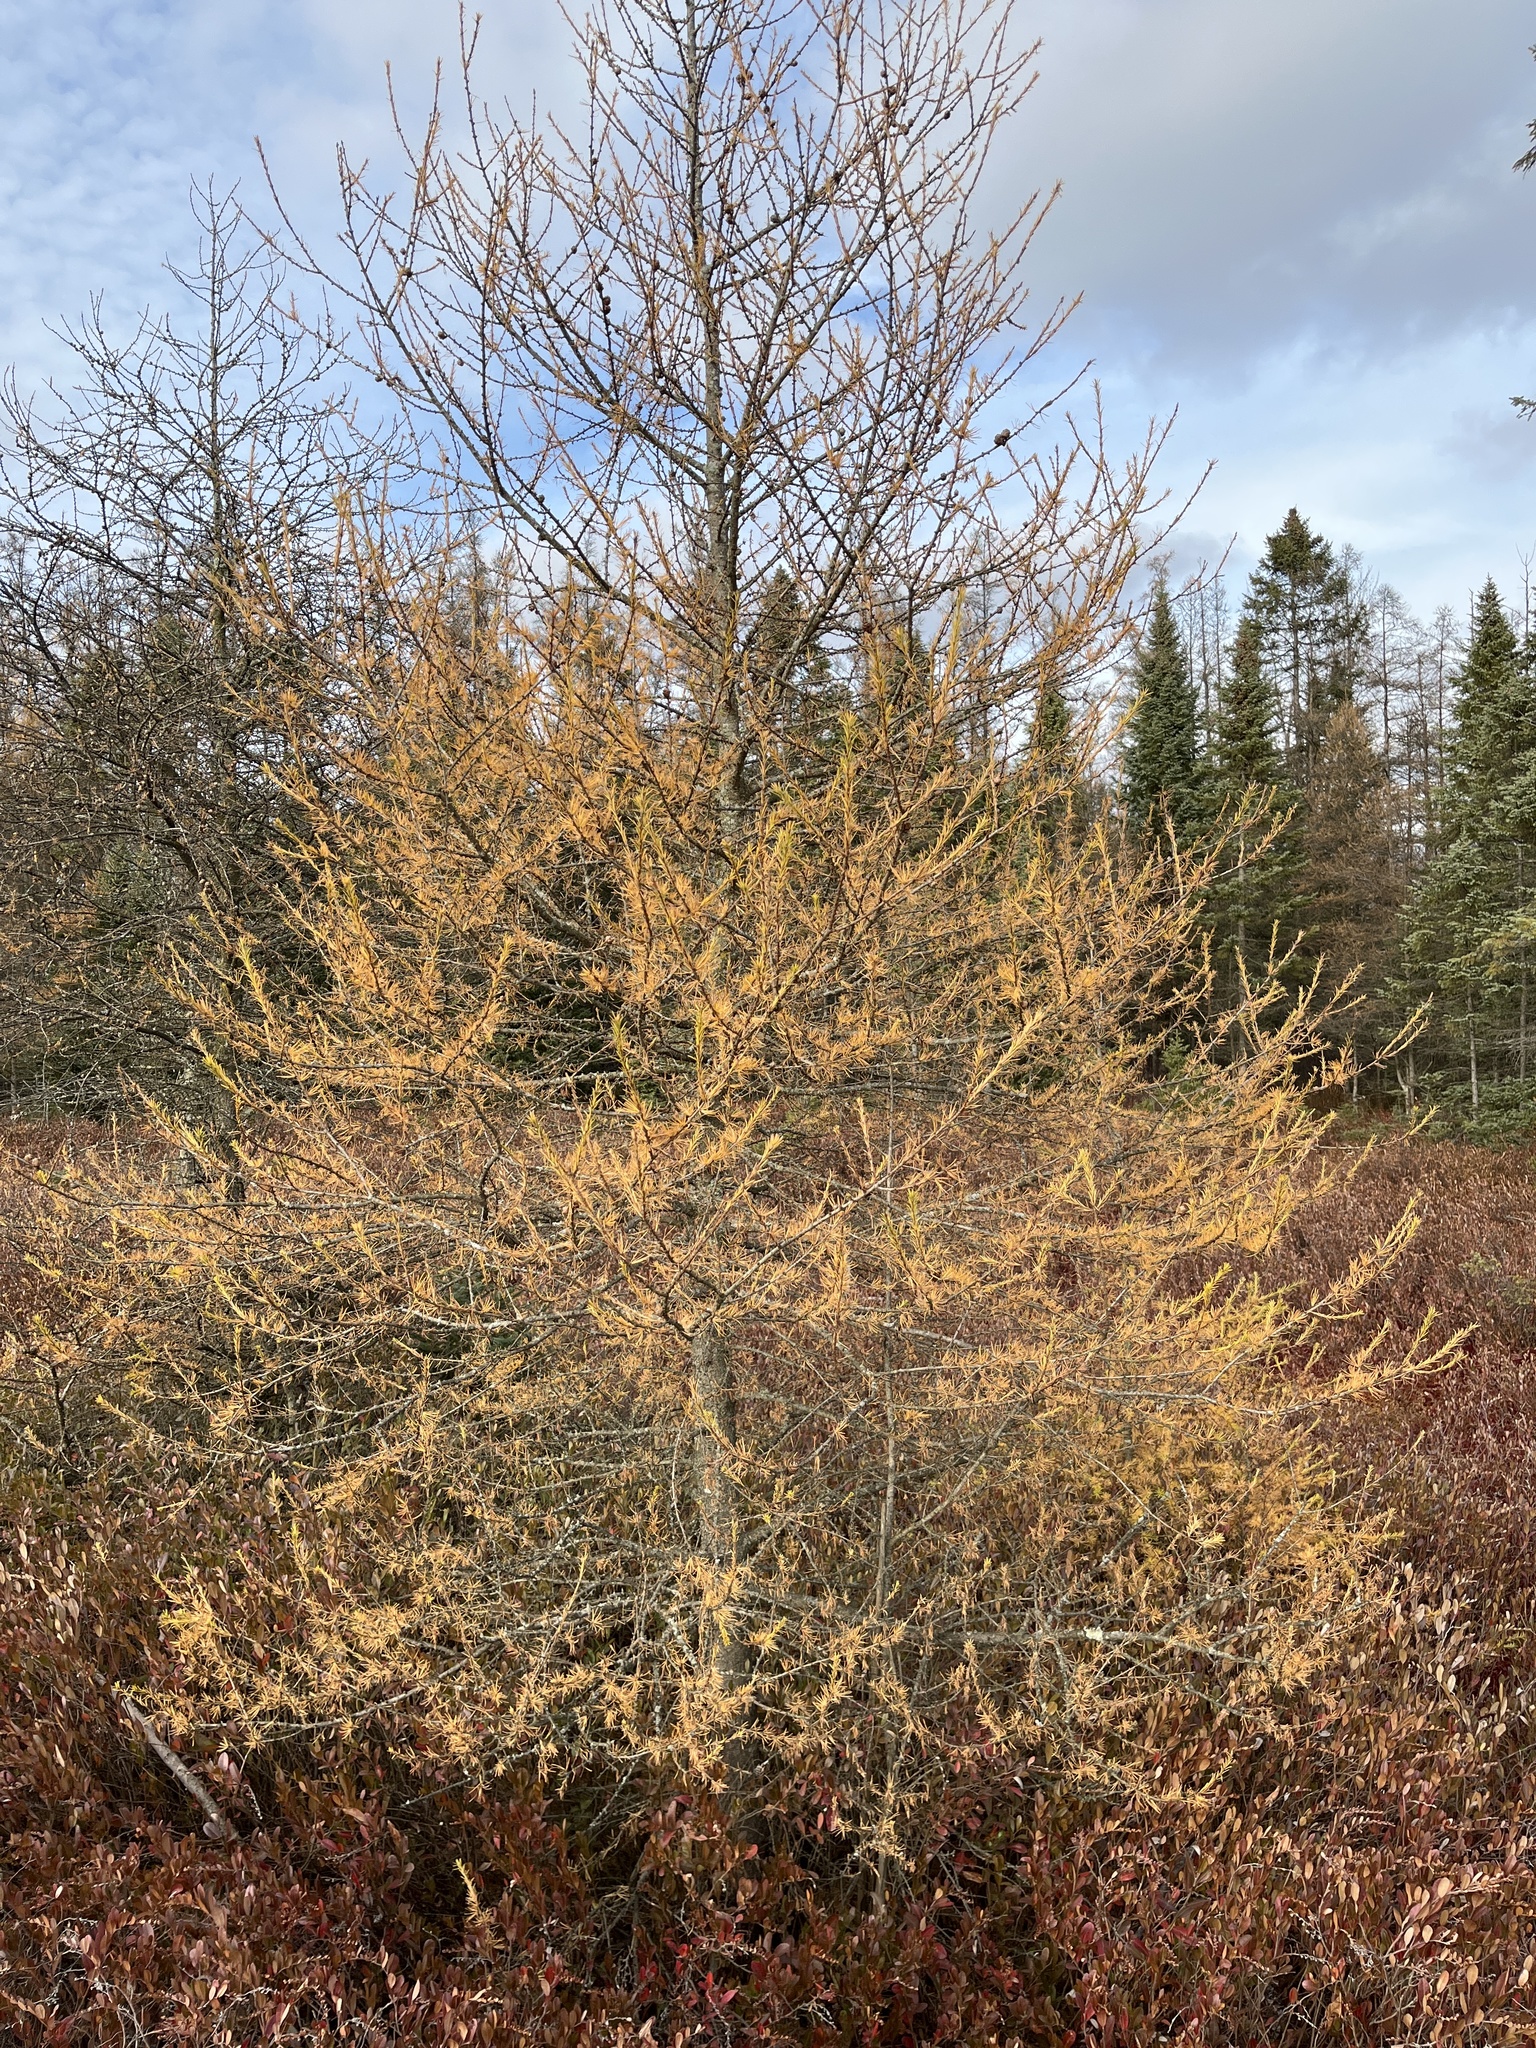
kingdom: Plantae
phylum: Tracheophyta
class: Pinopsida
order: Pinales
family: Pinaceae
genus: Larix
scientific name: Larix laricina
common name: American larch
